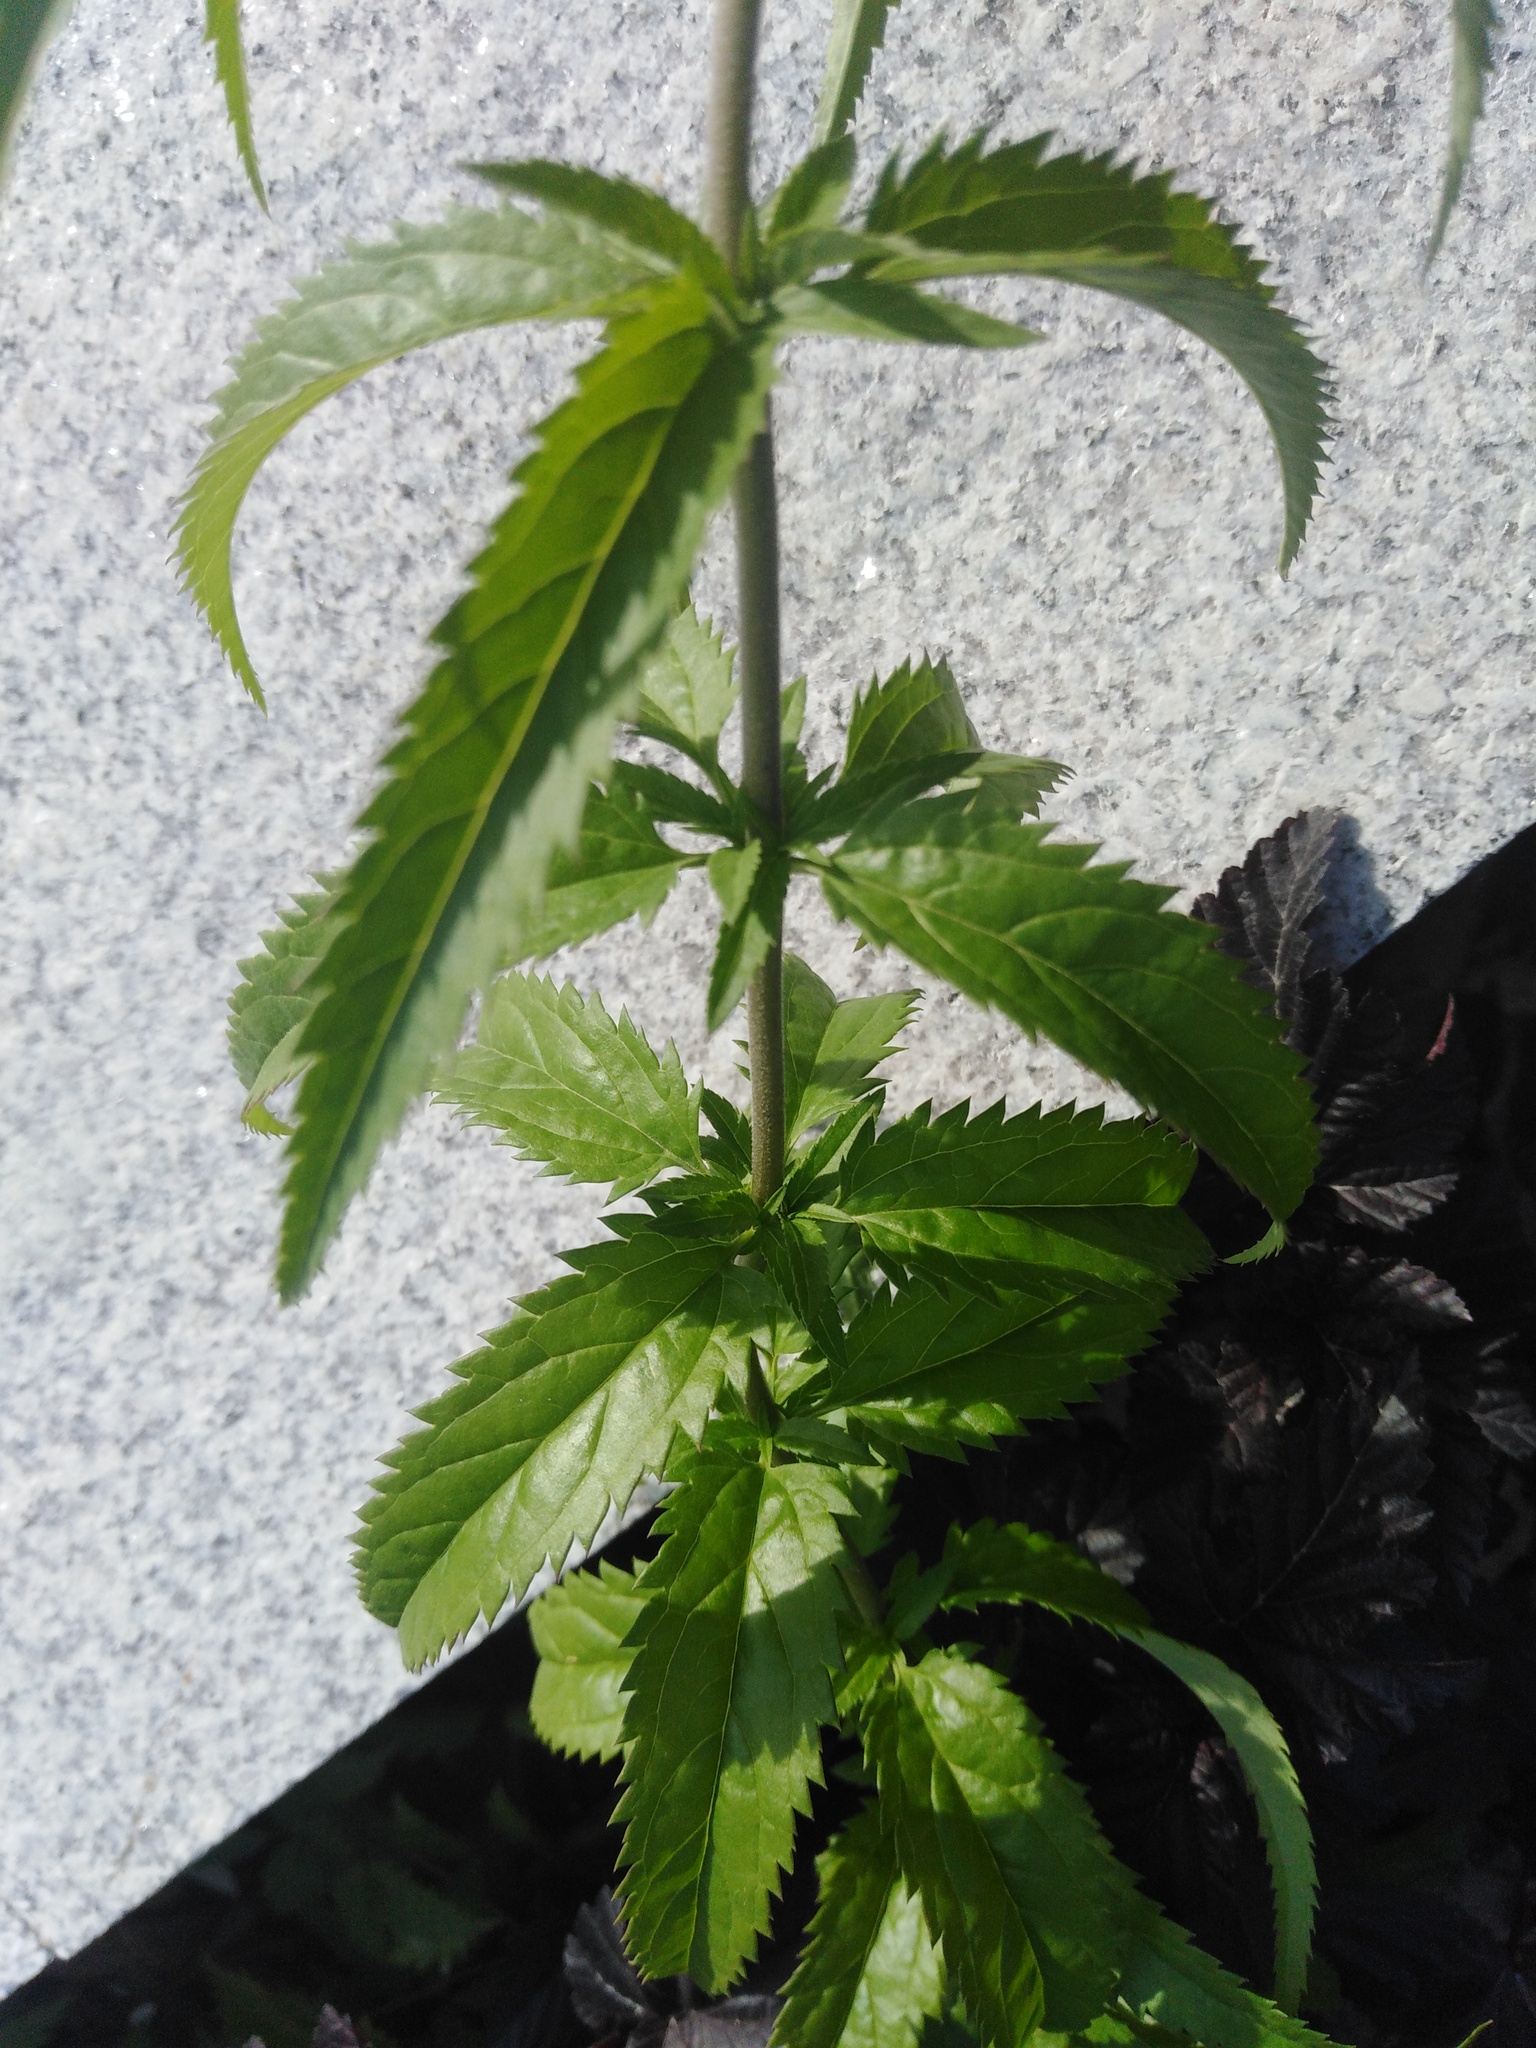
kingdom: Plantae
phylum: Tracheophyta
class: Magnoliopsida
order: Lamiales
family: Plantaginaceae
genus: Veronica
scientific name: Veronica longifolia
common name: Garden speedwell
